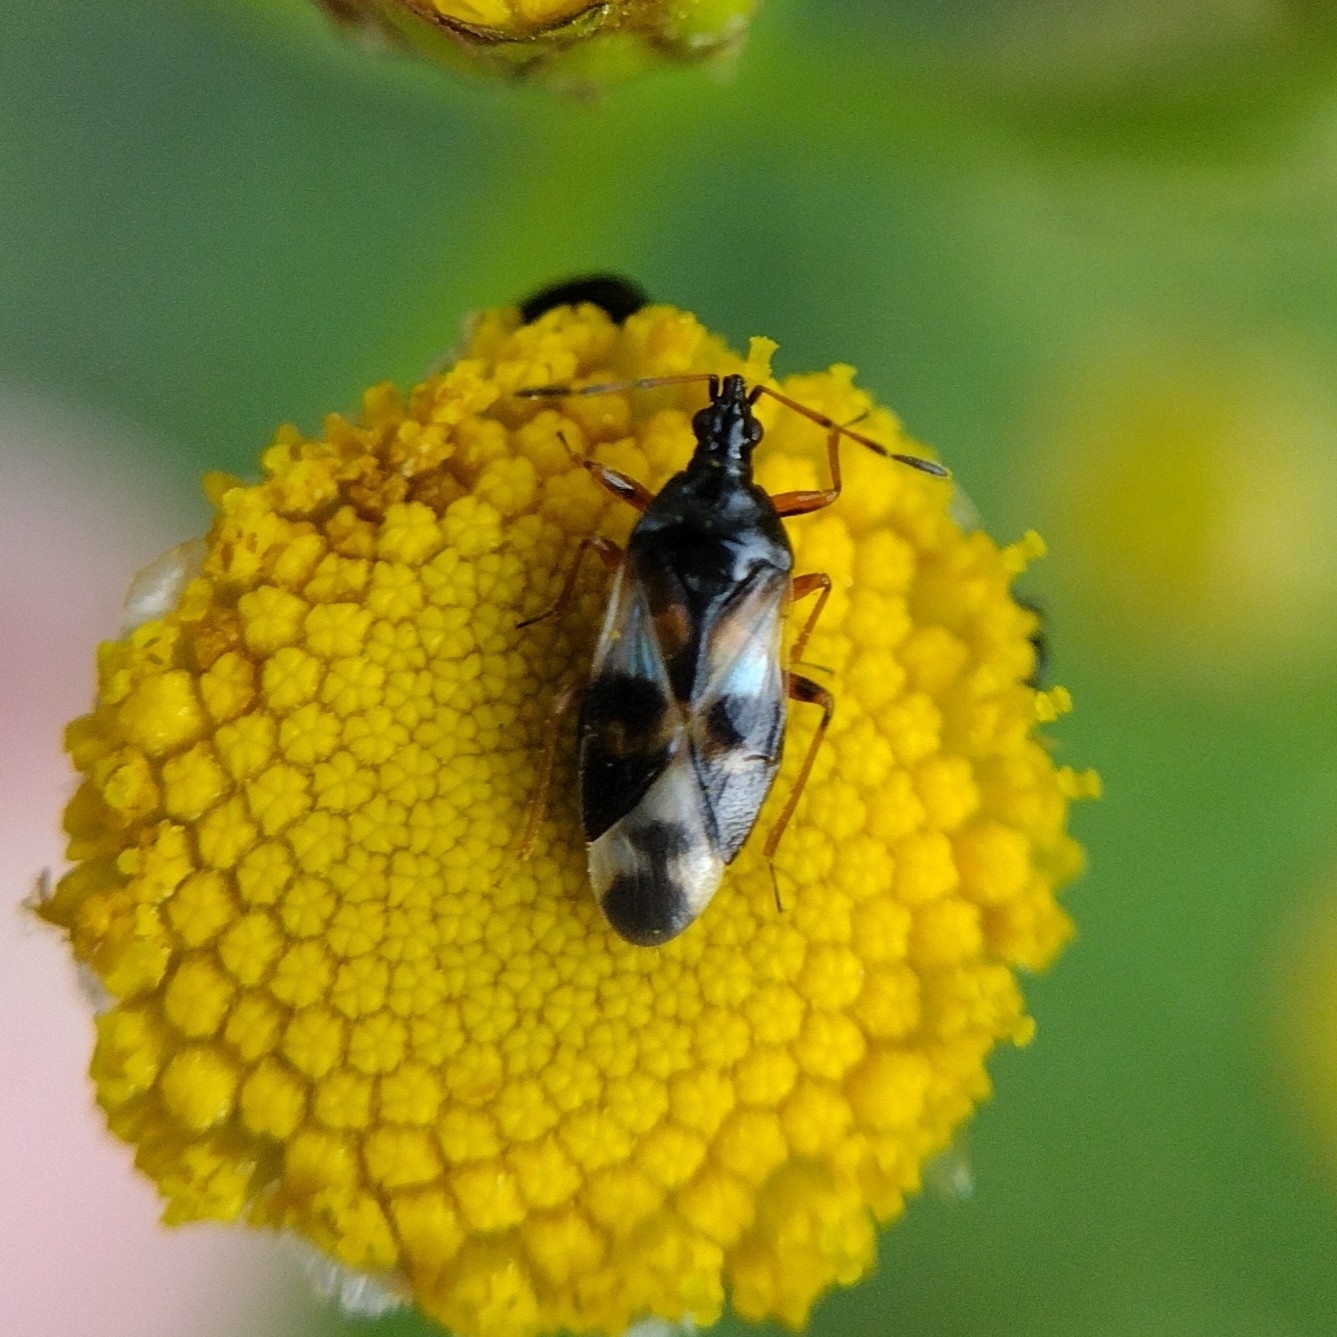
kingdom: Animalia
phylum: Arthropoda
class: Insecta
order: Hemiptera
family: Anthocoridae
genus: Anthocoris
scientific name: Anthocoris nemorum
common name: Minute pirate bug
